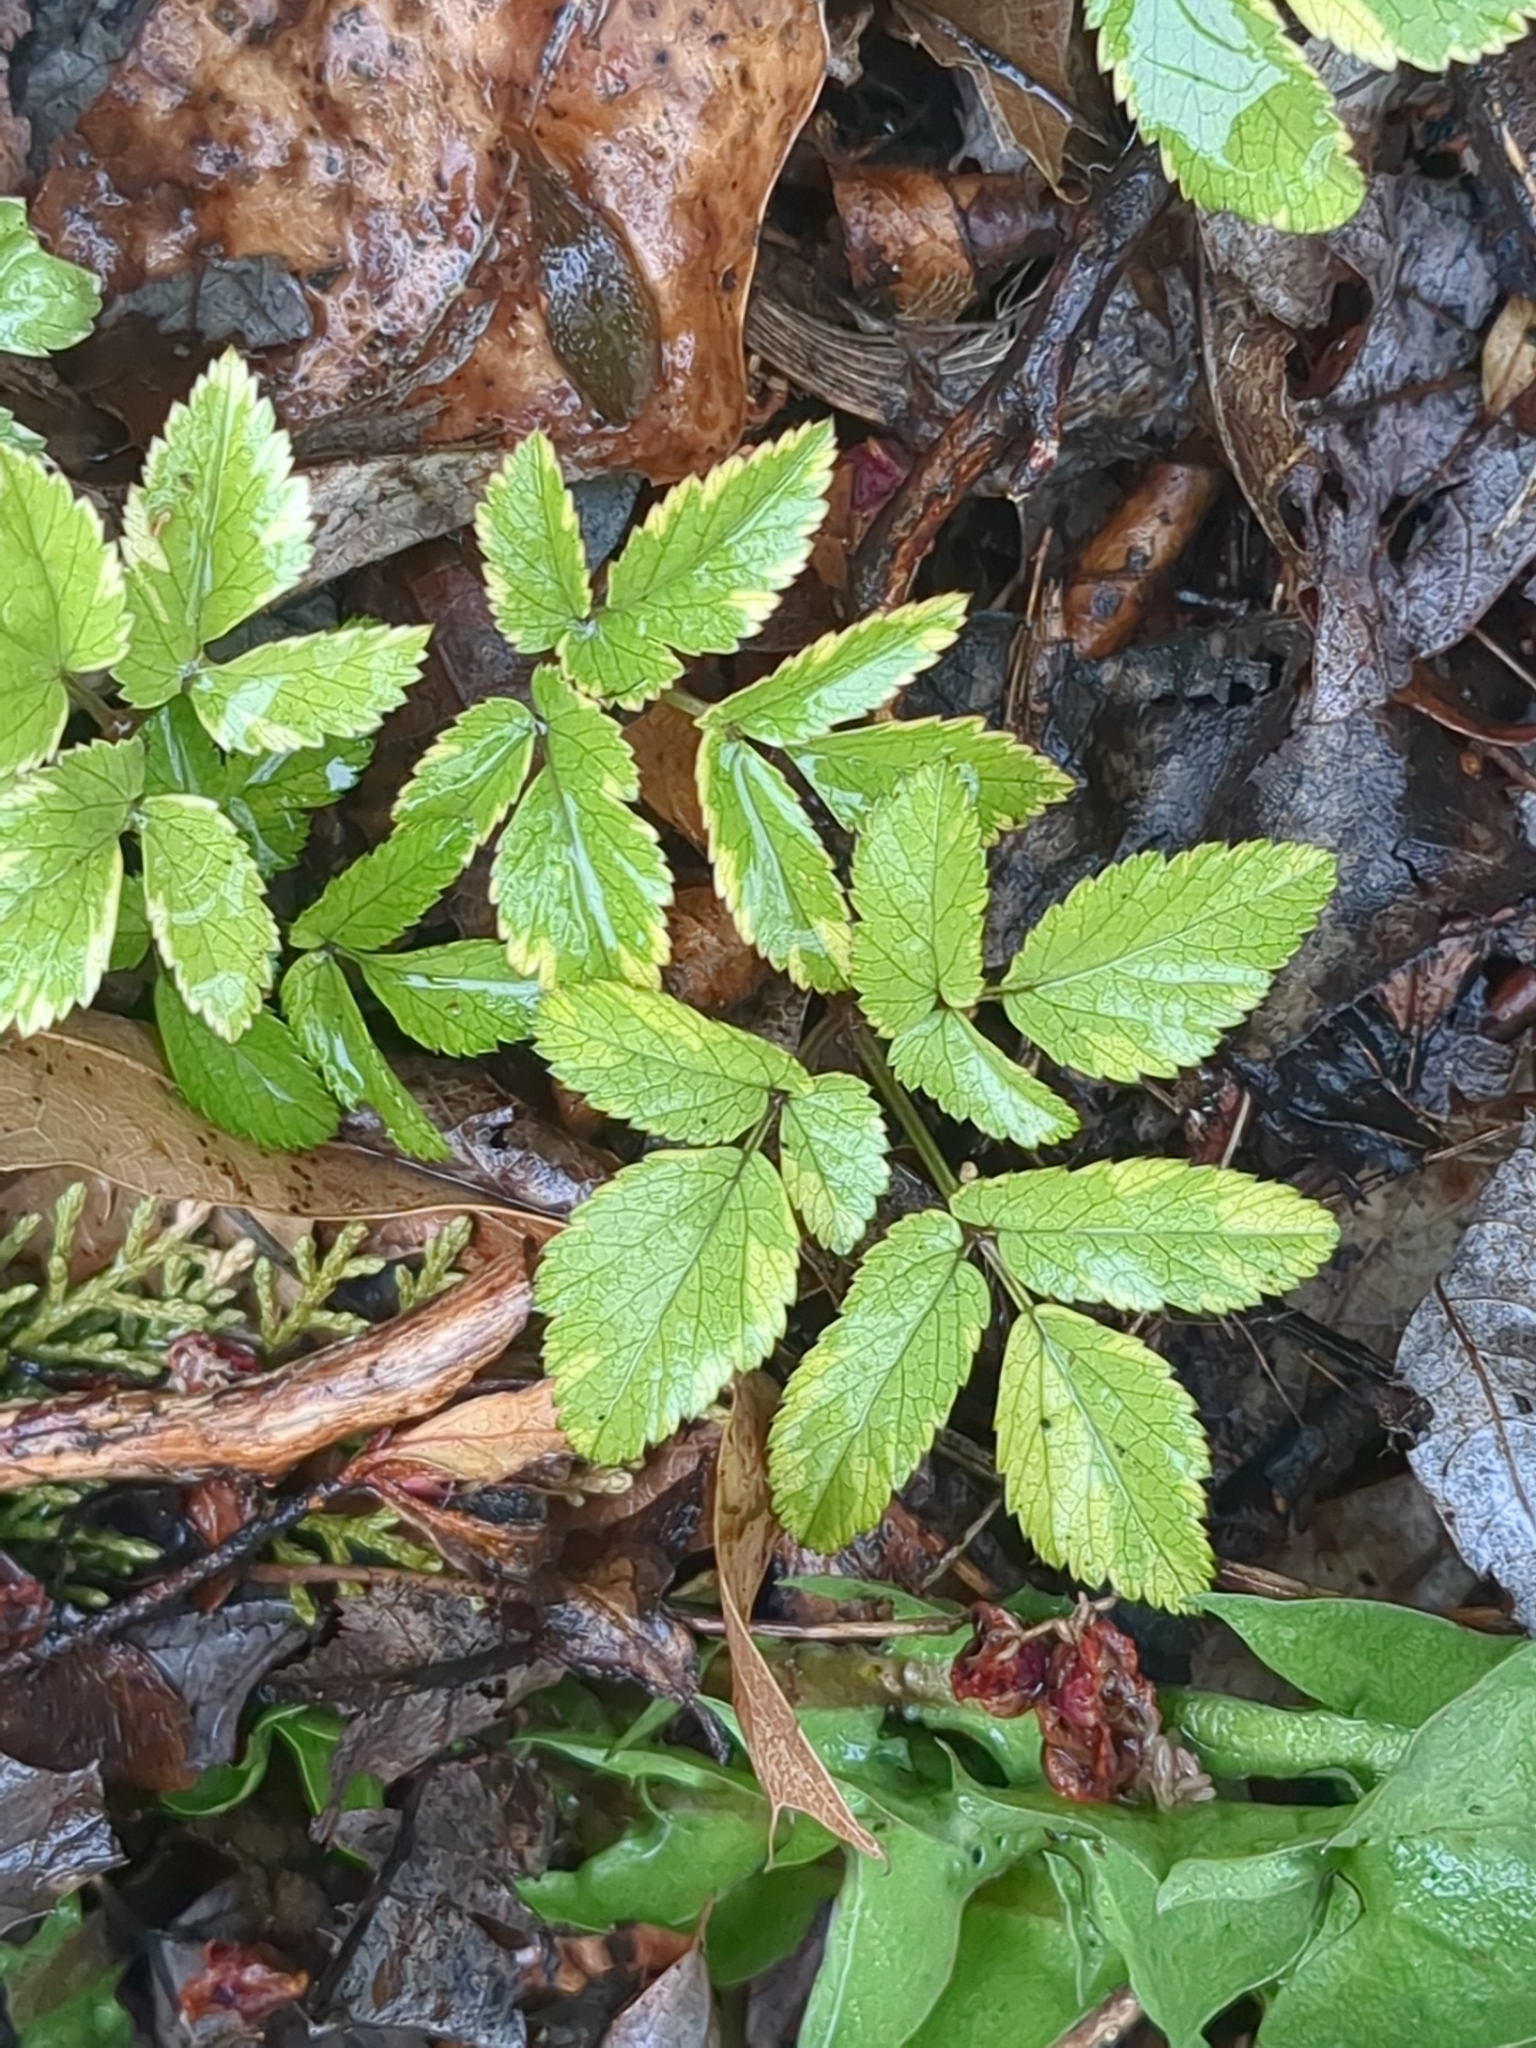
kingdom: Plantae
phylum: Tracheophyta
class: Magnoliopsida
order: Apiales
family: Apiaceae
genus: Aegopodium
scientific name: Aegopodium podagraria
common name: Ground-elder
